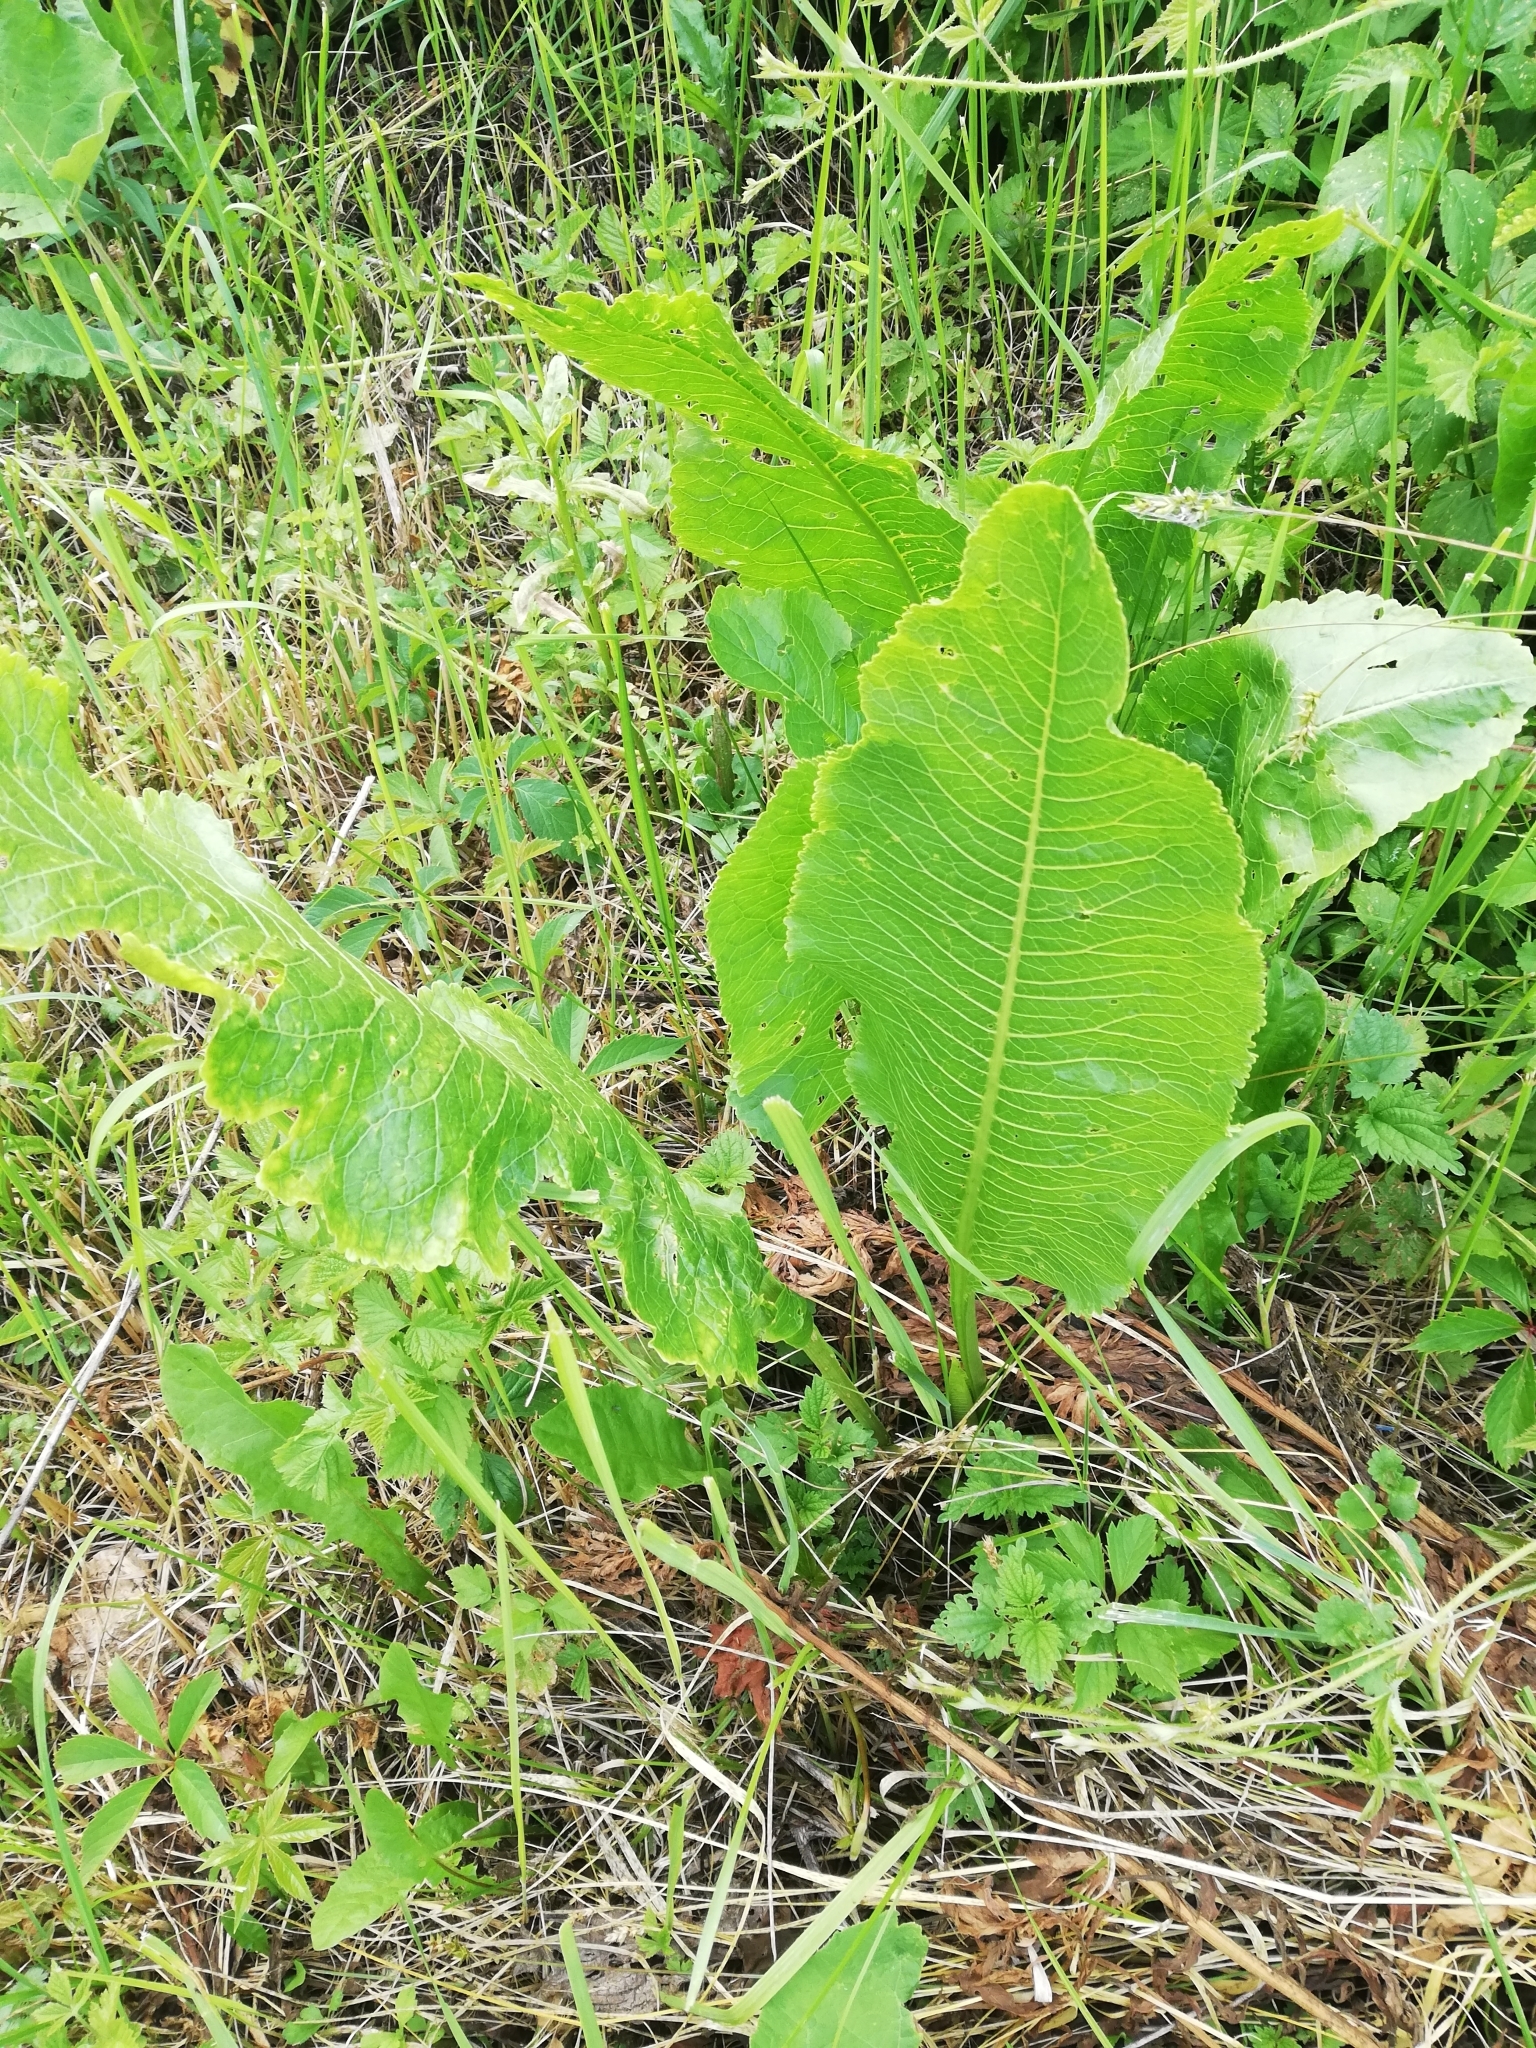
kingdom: Plantae
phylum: Tracheophyta
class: Magnoliopsida
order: Brassicales
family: Brassicaceae
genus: Armoracia
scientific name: Armoracia rusticana
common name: Horseradish
